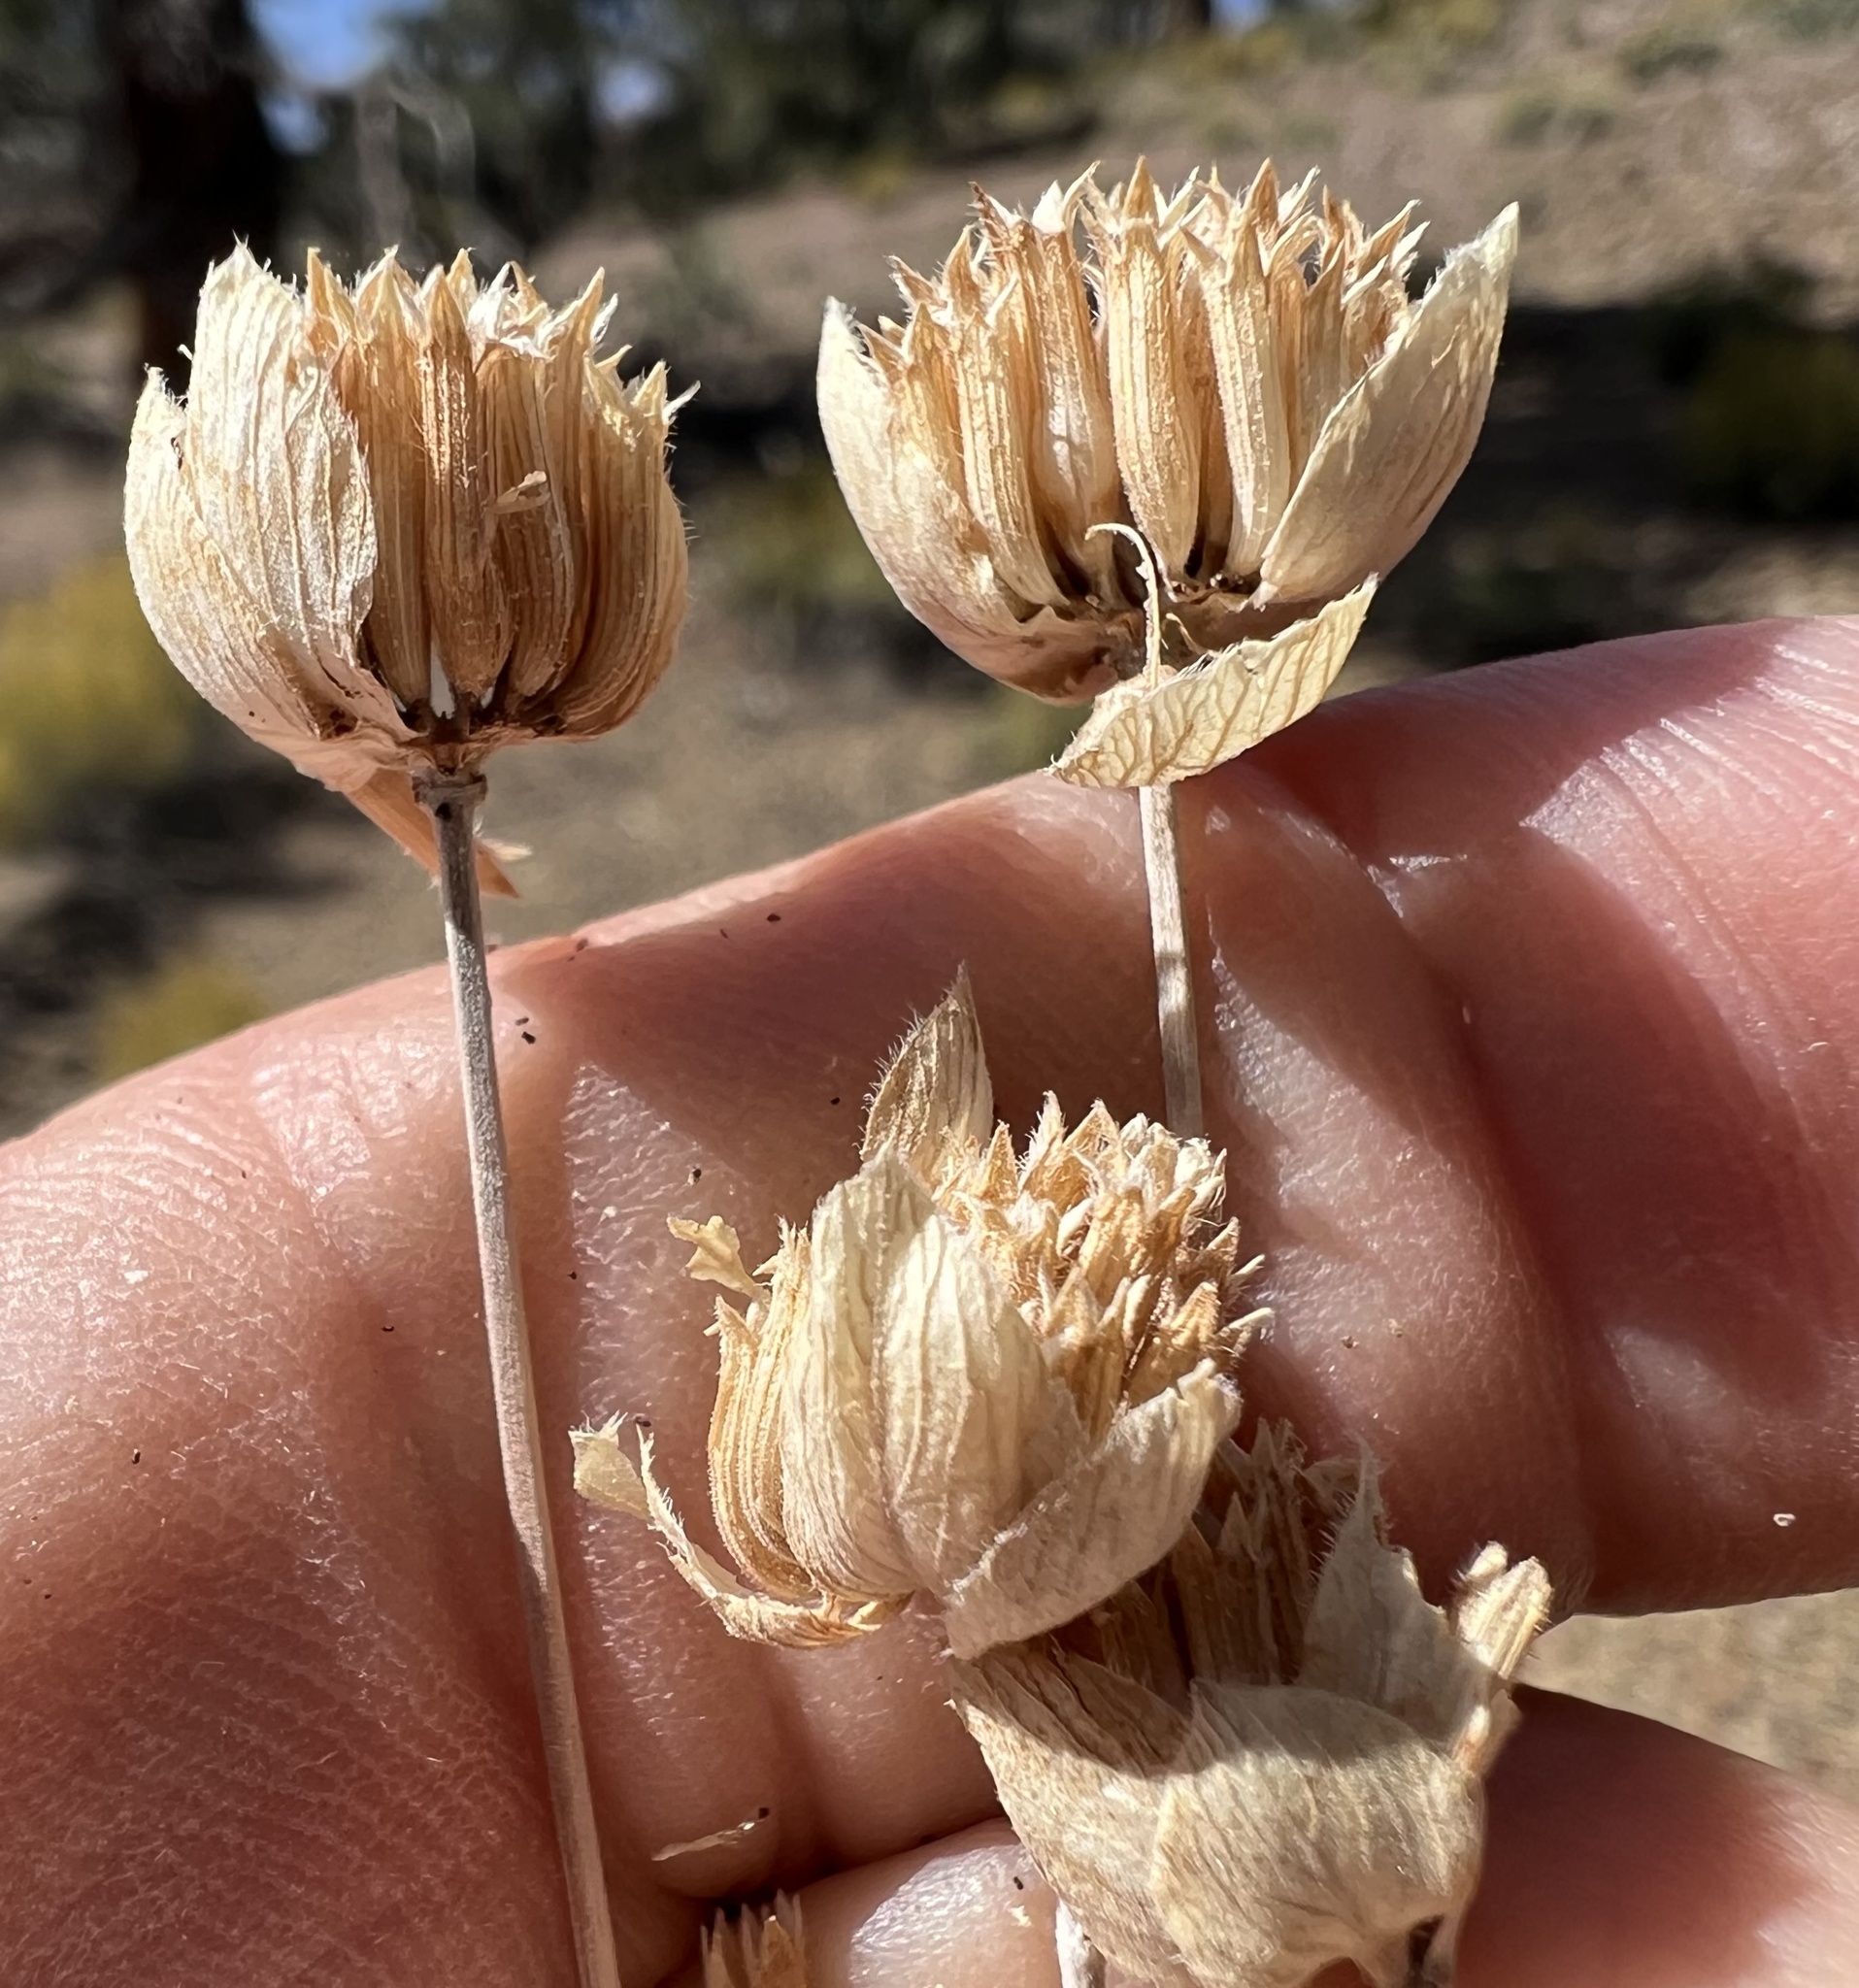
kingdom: Plantae
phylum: Tracheophyta
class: Magnoliopsida
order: Lamiales
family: Lamiaceae
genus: Monardella
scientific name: Monardella linoides
